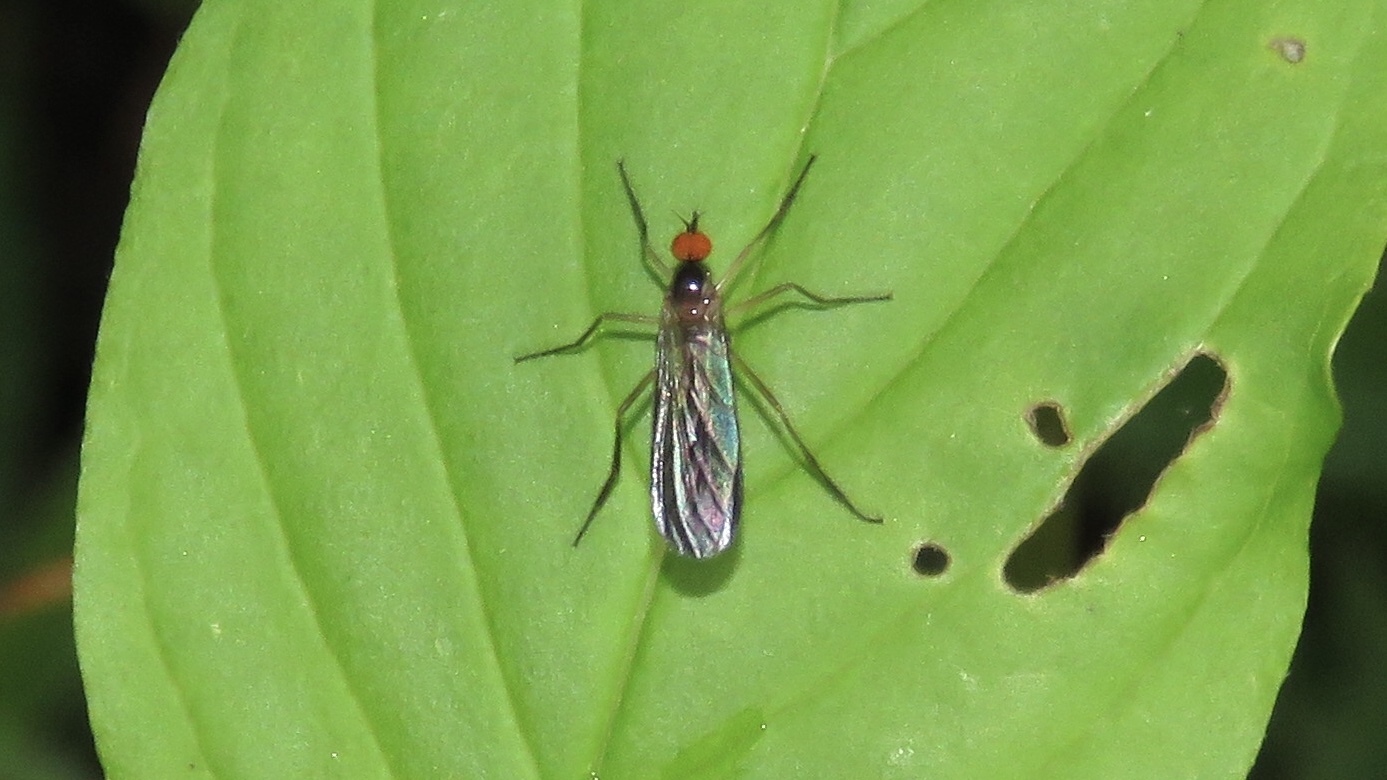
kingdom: Animalia
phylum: Arthropoda
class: Insecta
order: Diptera
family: Empididae
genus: Rhamphomyia
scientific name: Rhamphomyia longicauda
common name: Long-tailed dance fly
